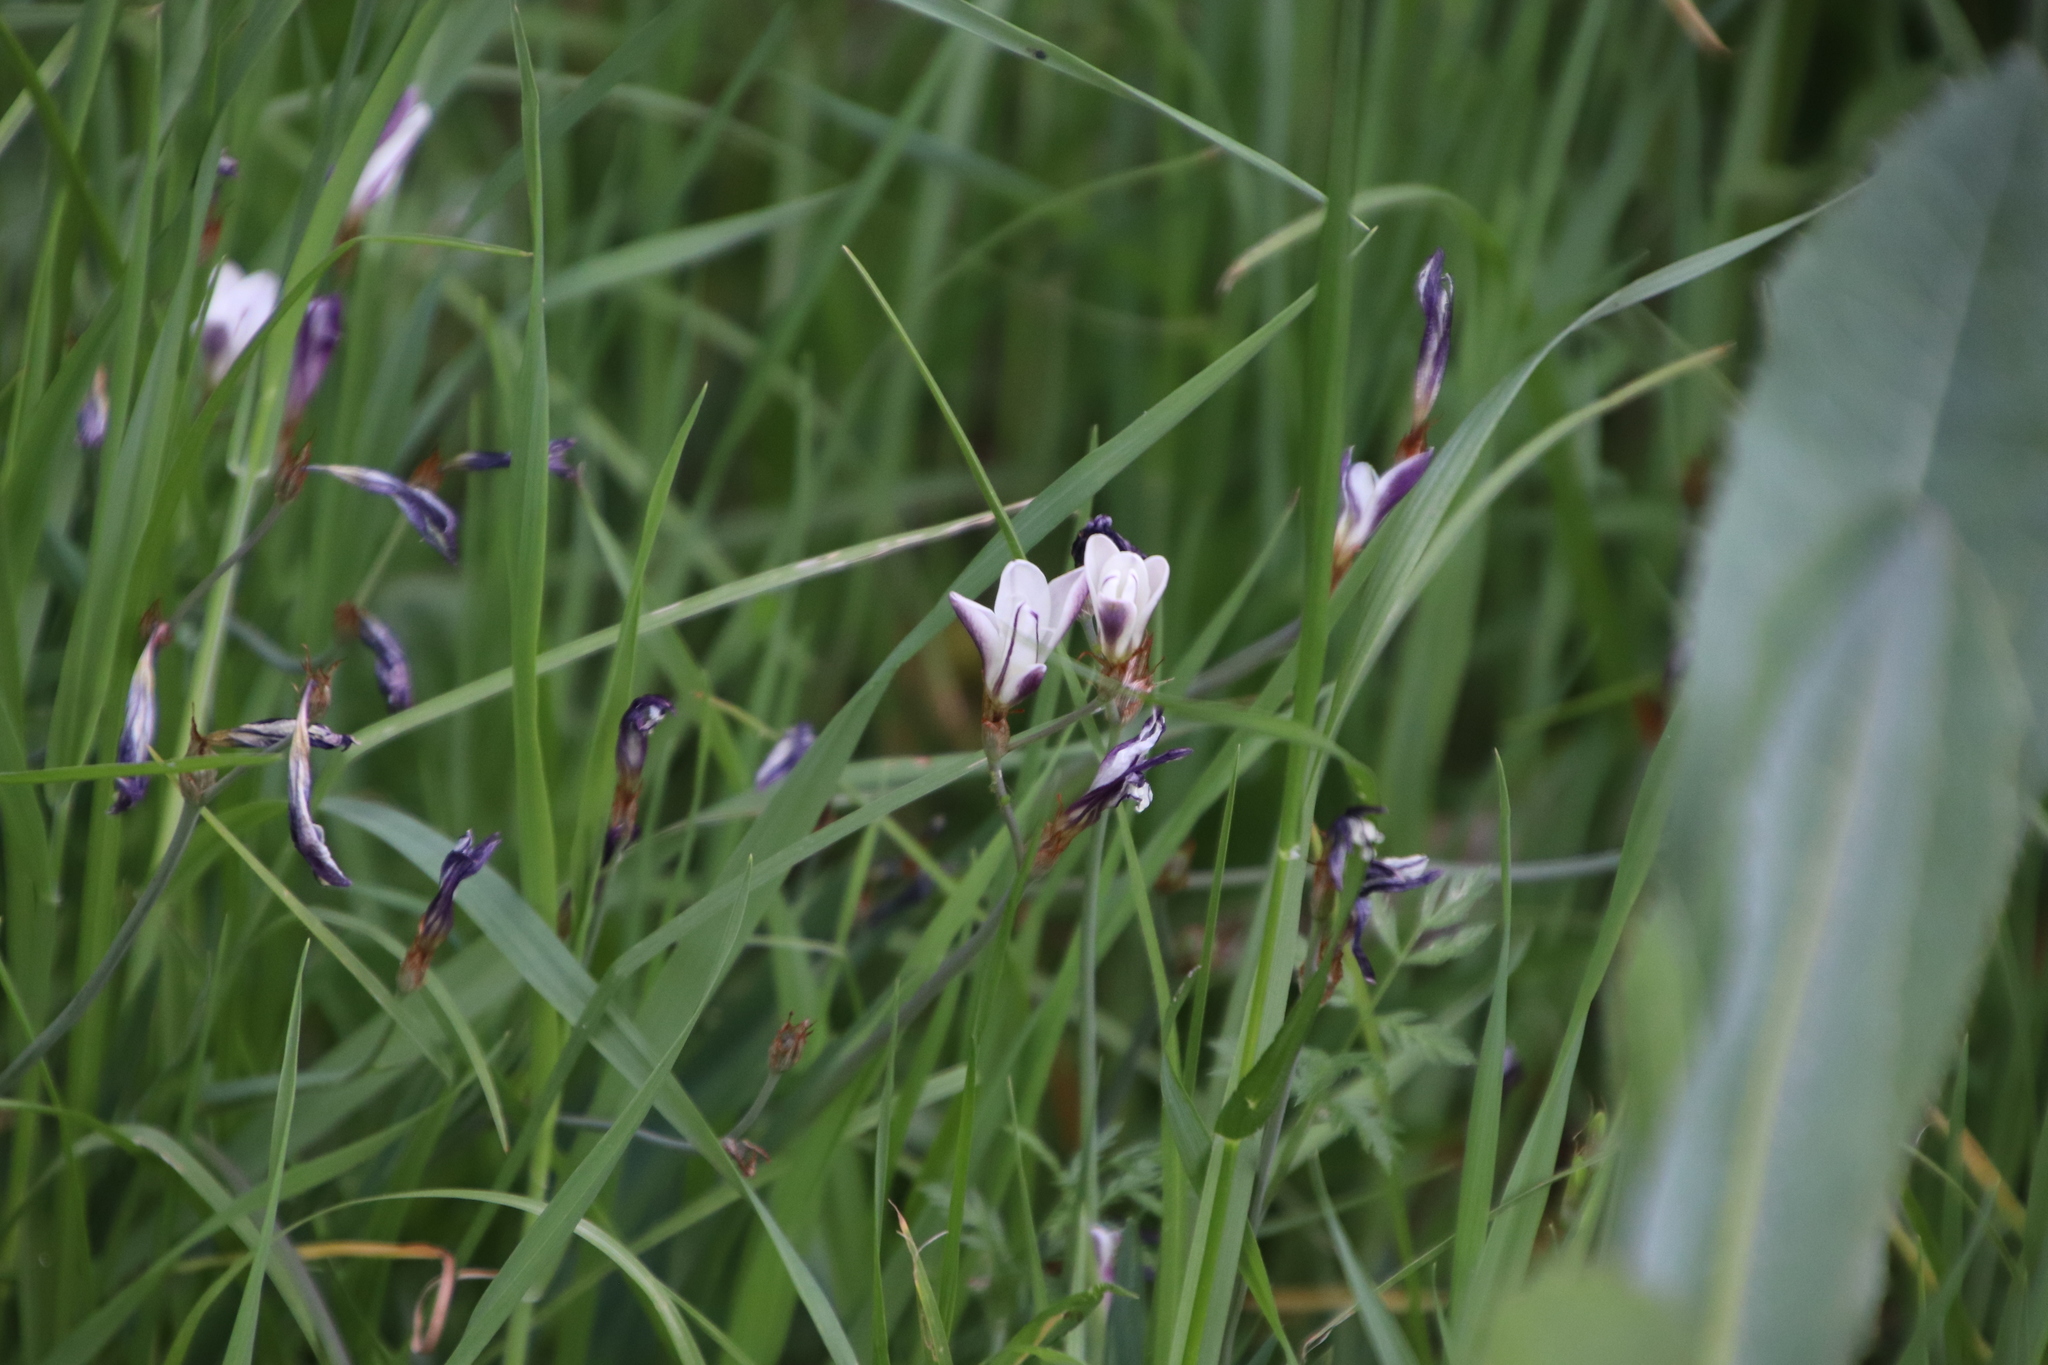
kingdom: Plantae
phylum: Tracheophyta
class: Liliopsida
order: Asparagales
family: Iridaceae
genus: Sparaxis
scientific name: Sparaxis bulbifera
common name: Harlequin-flower
